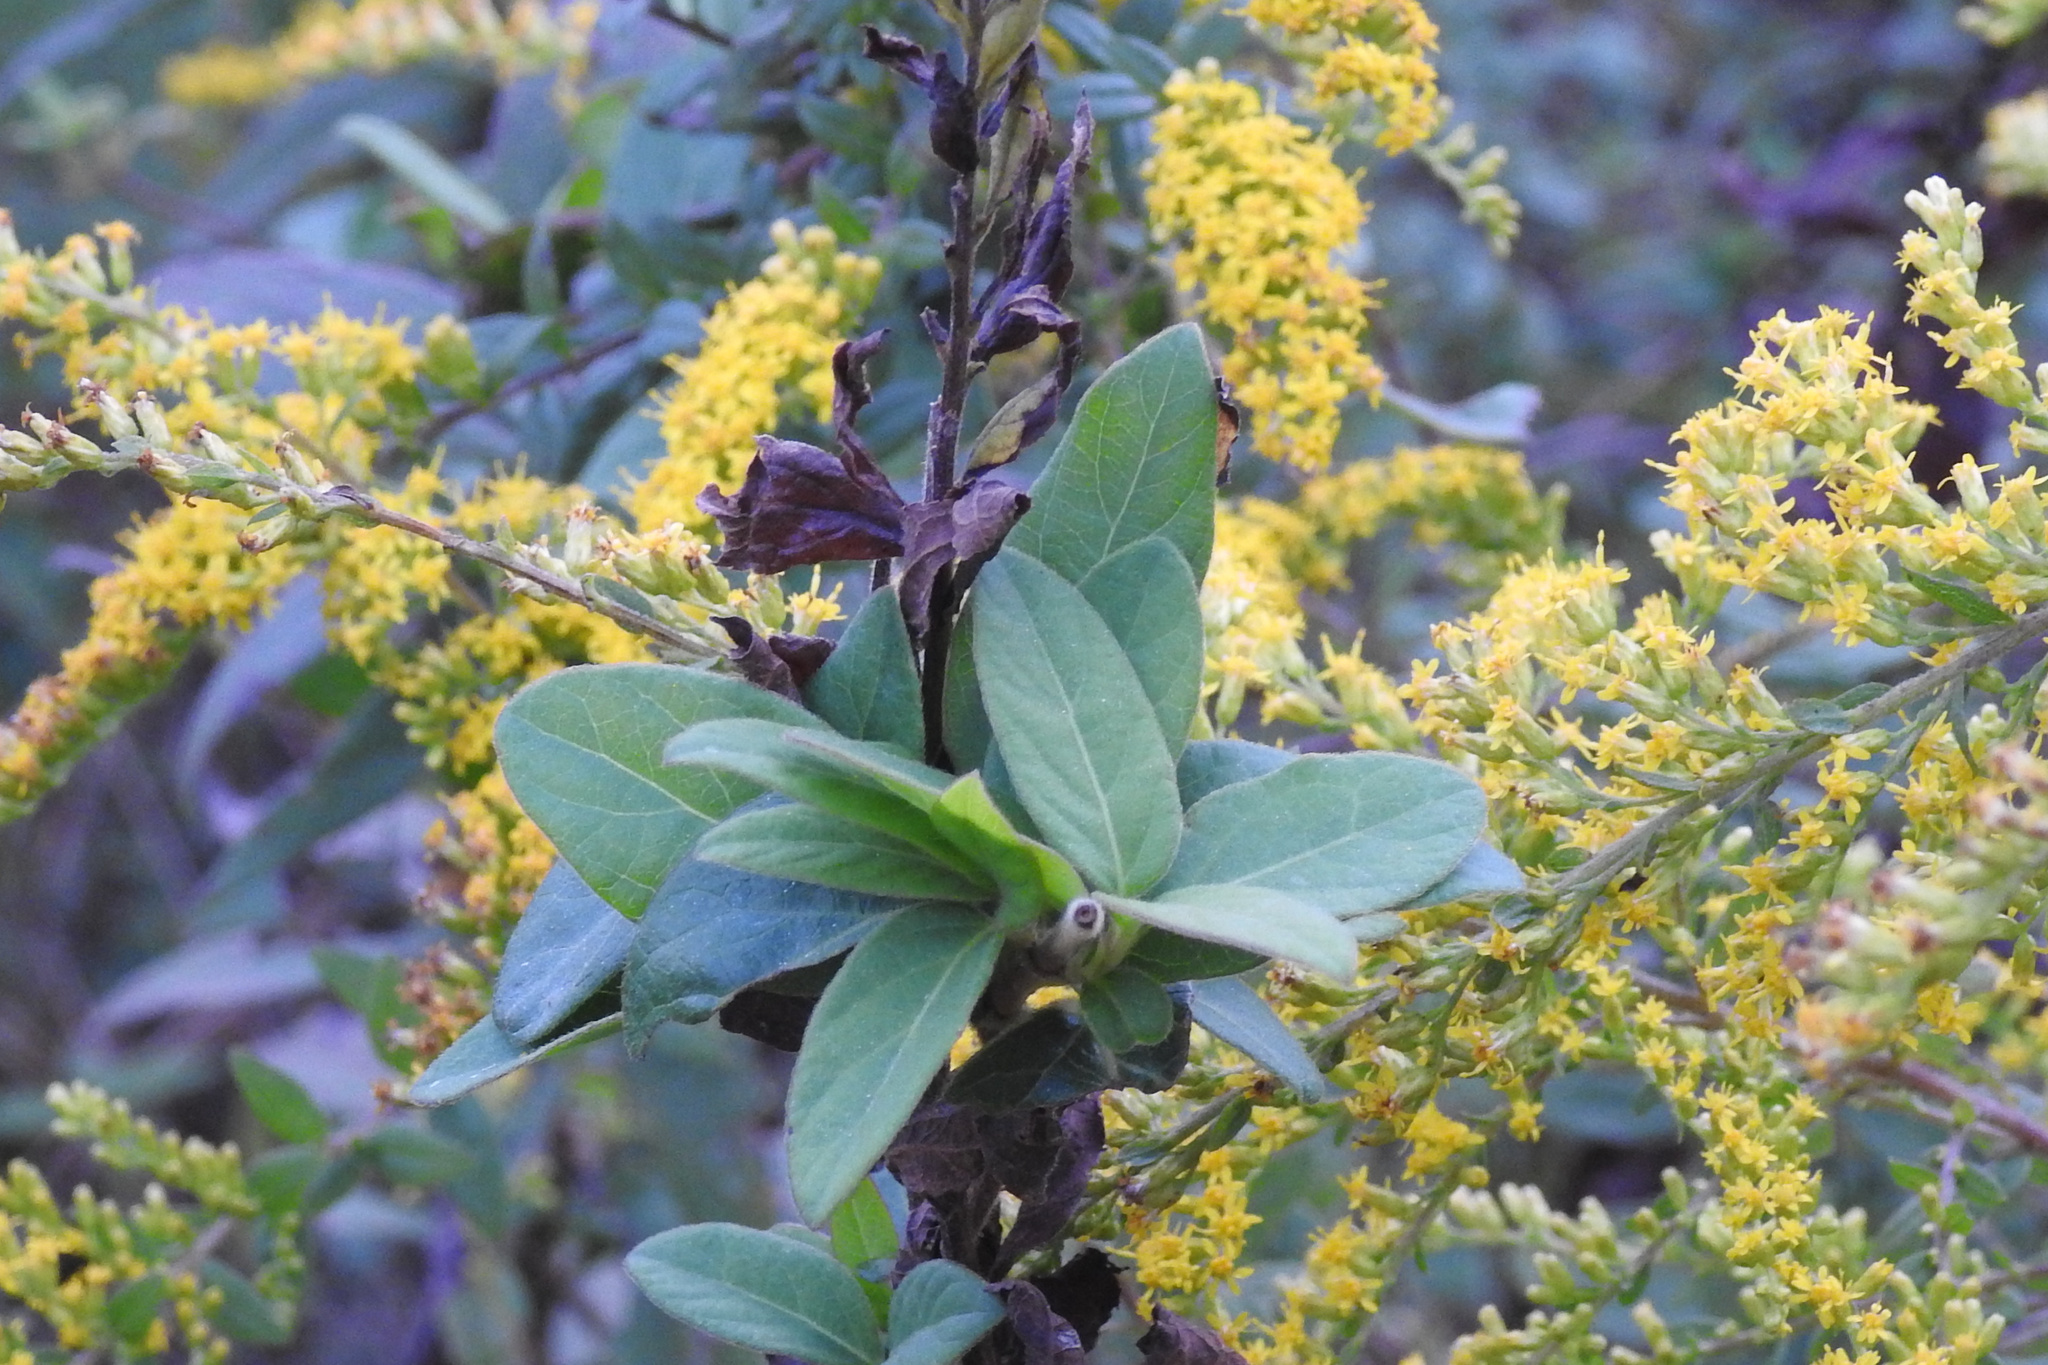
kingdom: Plantae
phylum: Tracheophyta
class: Magnoliopsida
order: Dipsacales
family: Caprifoliaceae
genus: Lonicera
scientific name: Lonicera japonica
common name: Japanese honeysuckle
